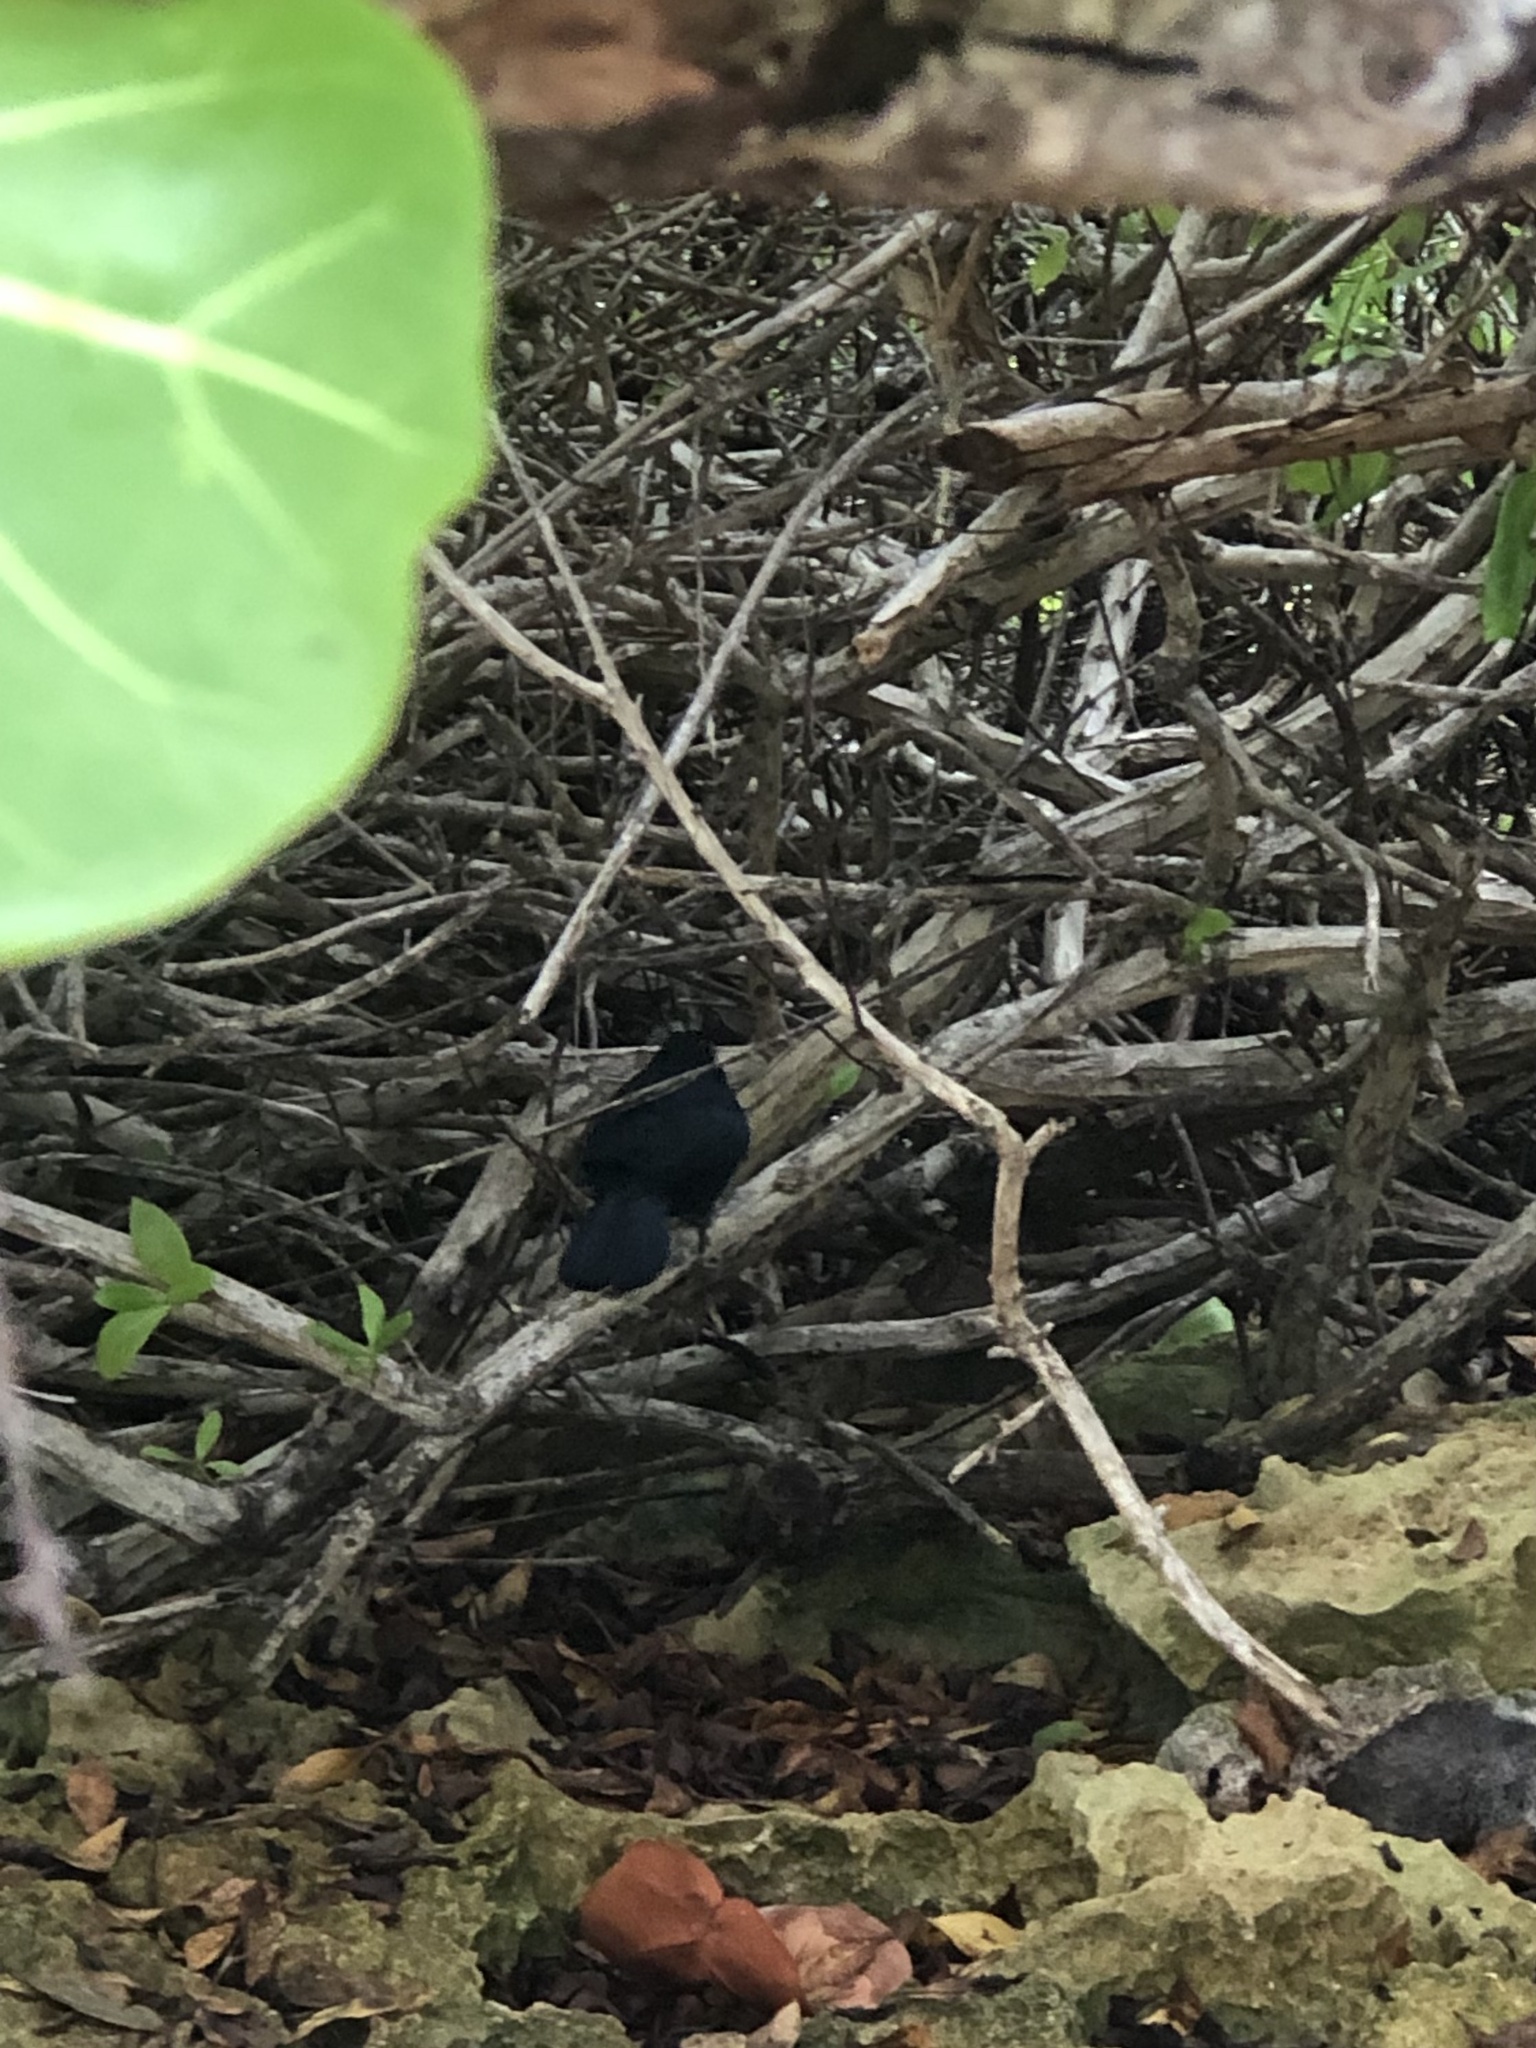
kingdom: Animalia
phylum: Chordata
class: Aves
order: Passeriformes
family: Mimidae
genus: Melanoptila
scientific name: Melanoptila glabrirostris
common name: Black catbird
